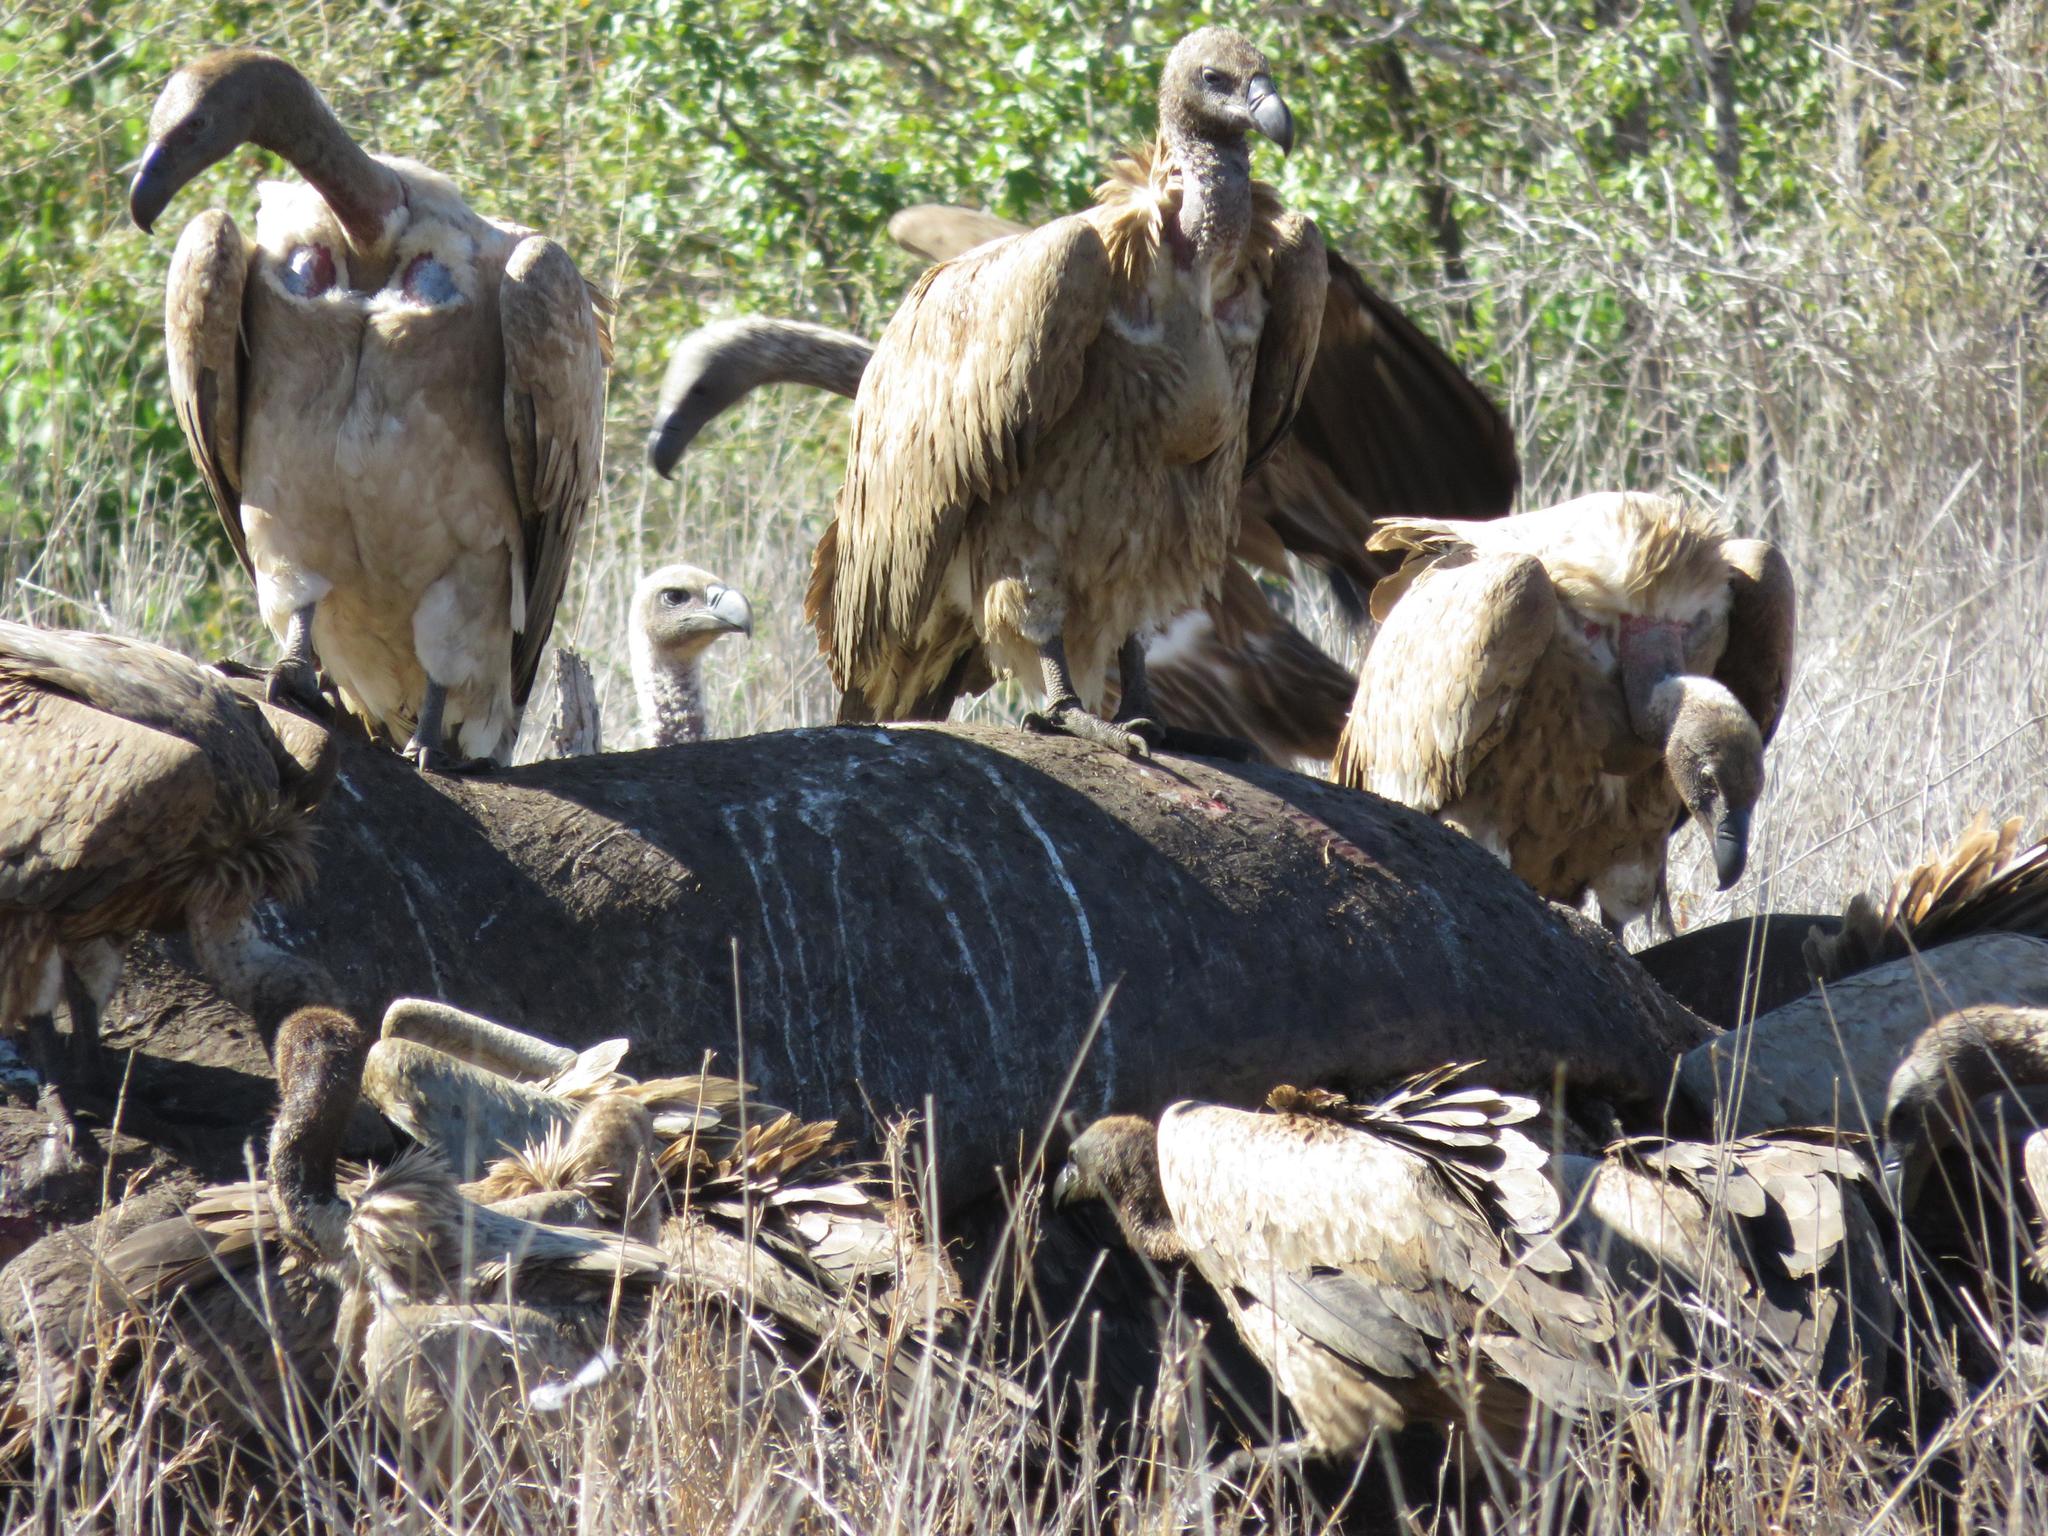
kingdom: Animalia
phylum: Chordata
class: Aves
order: Accipitriformes
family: Accipitridae
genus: Gyps
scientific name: Gyps africanus
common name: White-backed vulture
